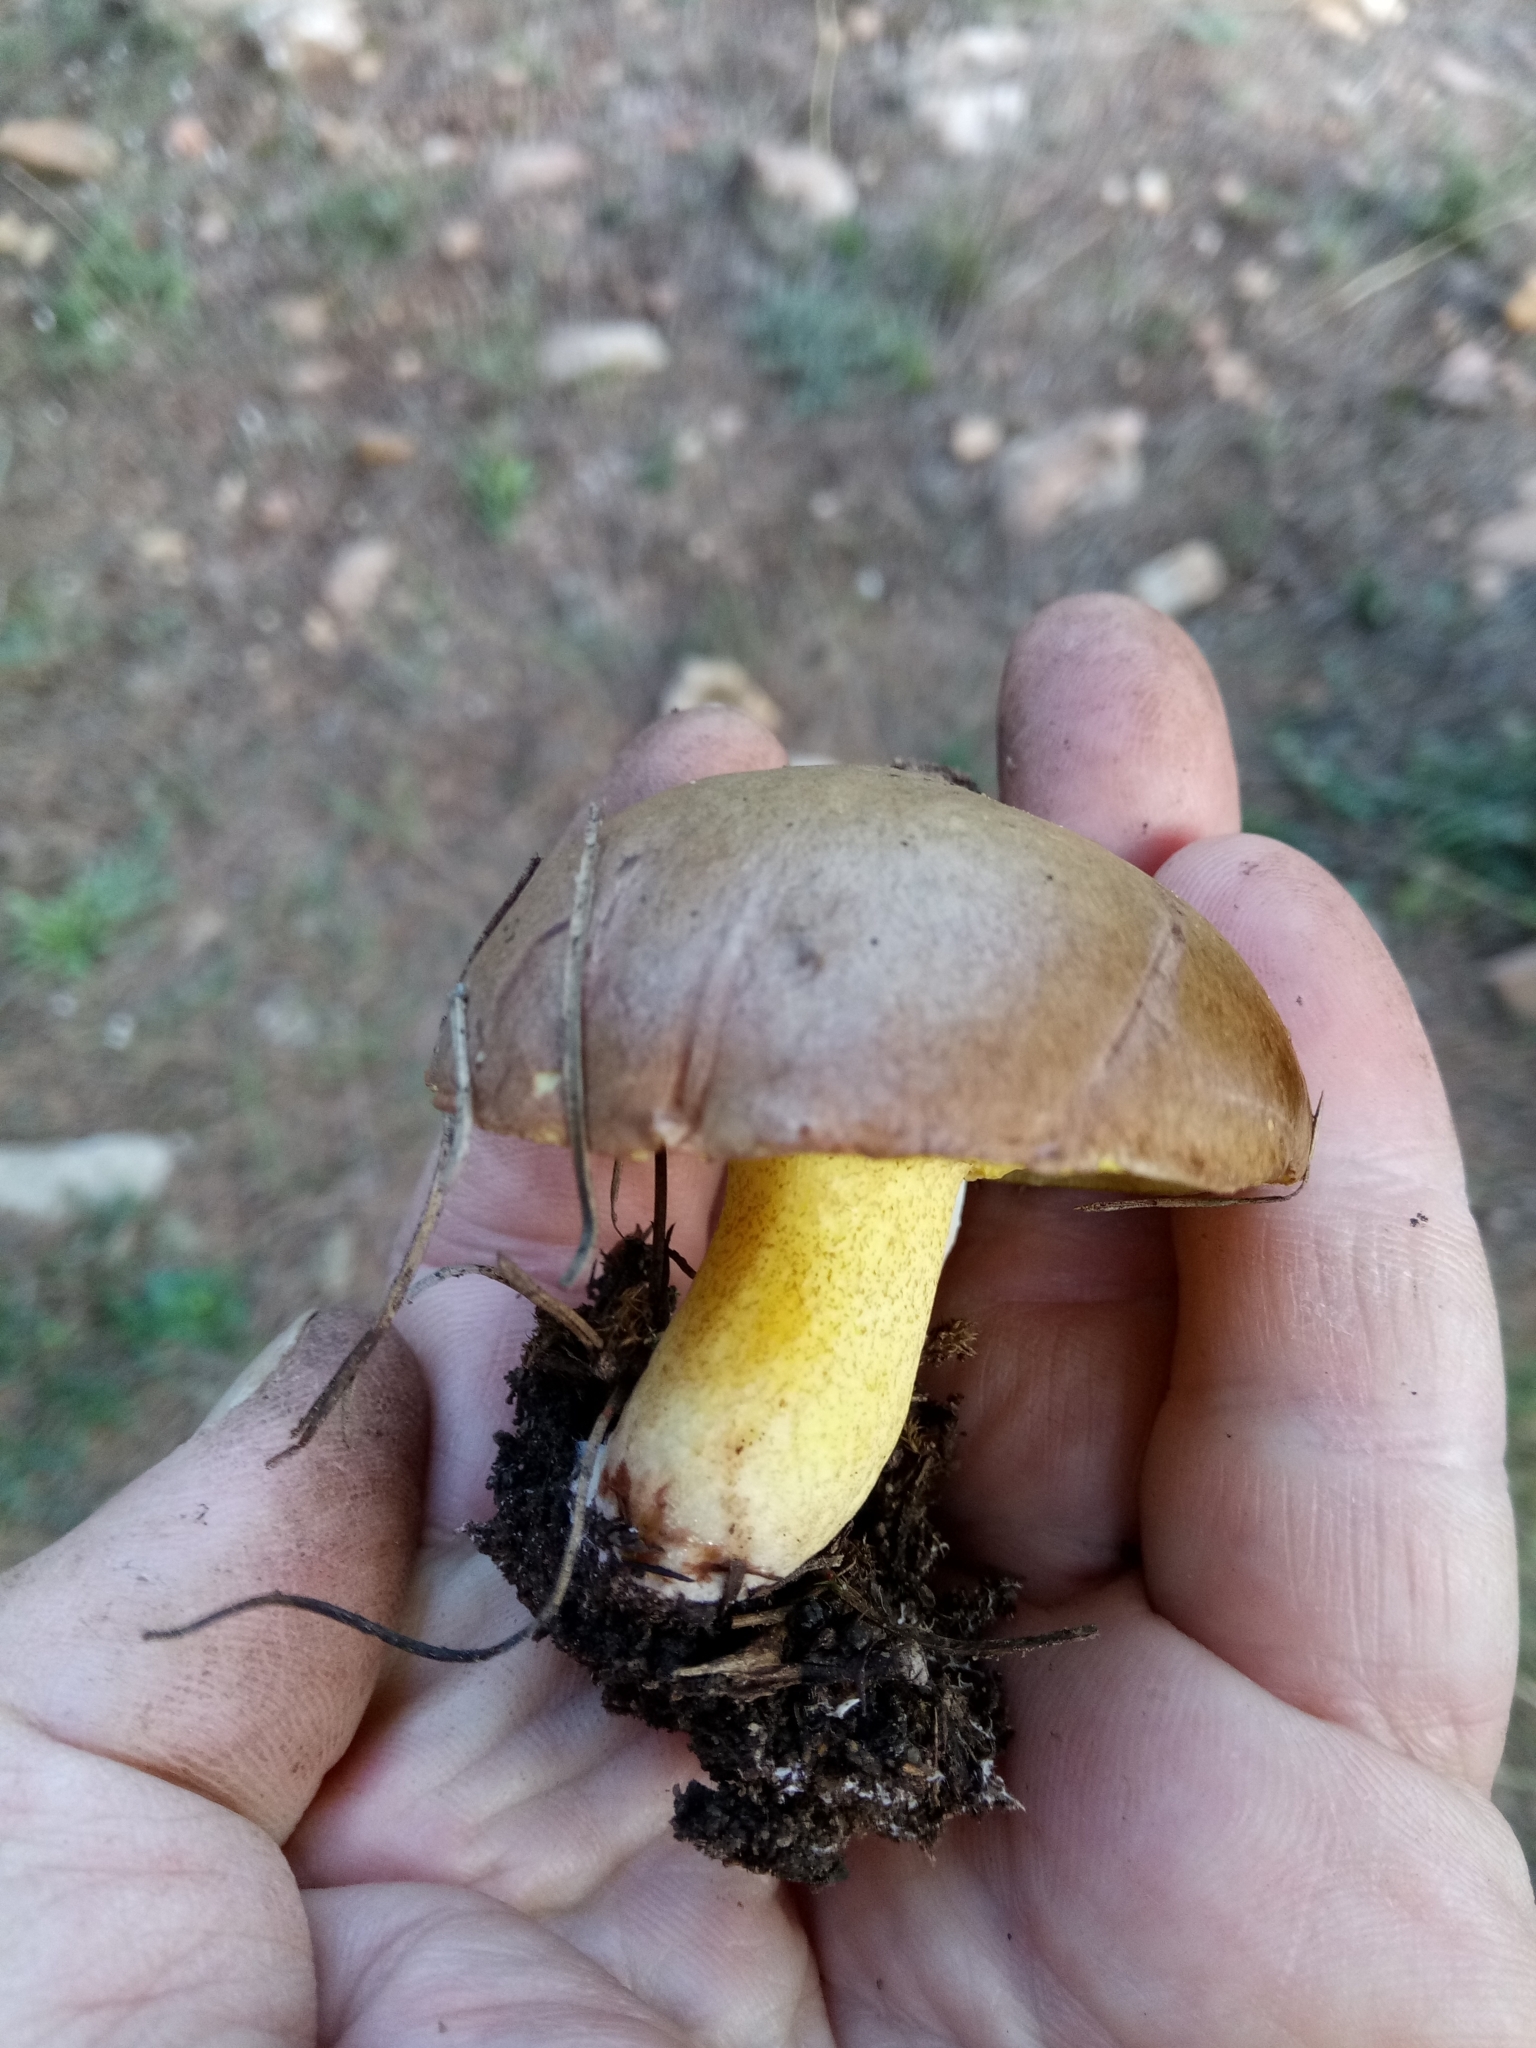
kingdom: Fungi
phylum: Basidiomycota
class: Agaricomycetes
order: Boletales
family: Suillaceae
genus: Suillus
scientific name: Suillus collinitus
